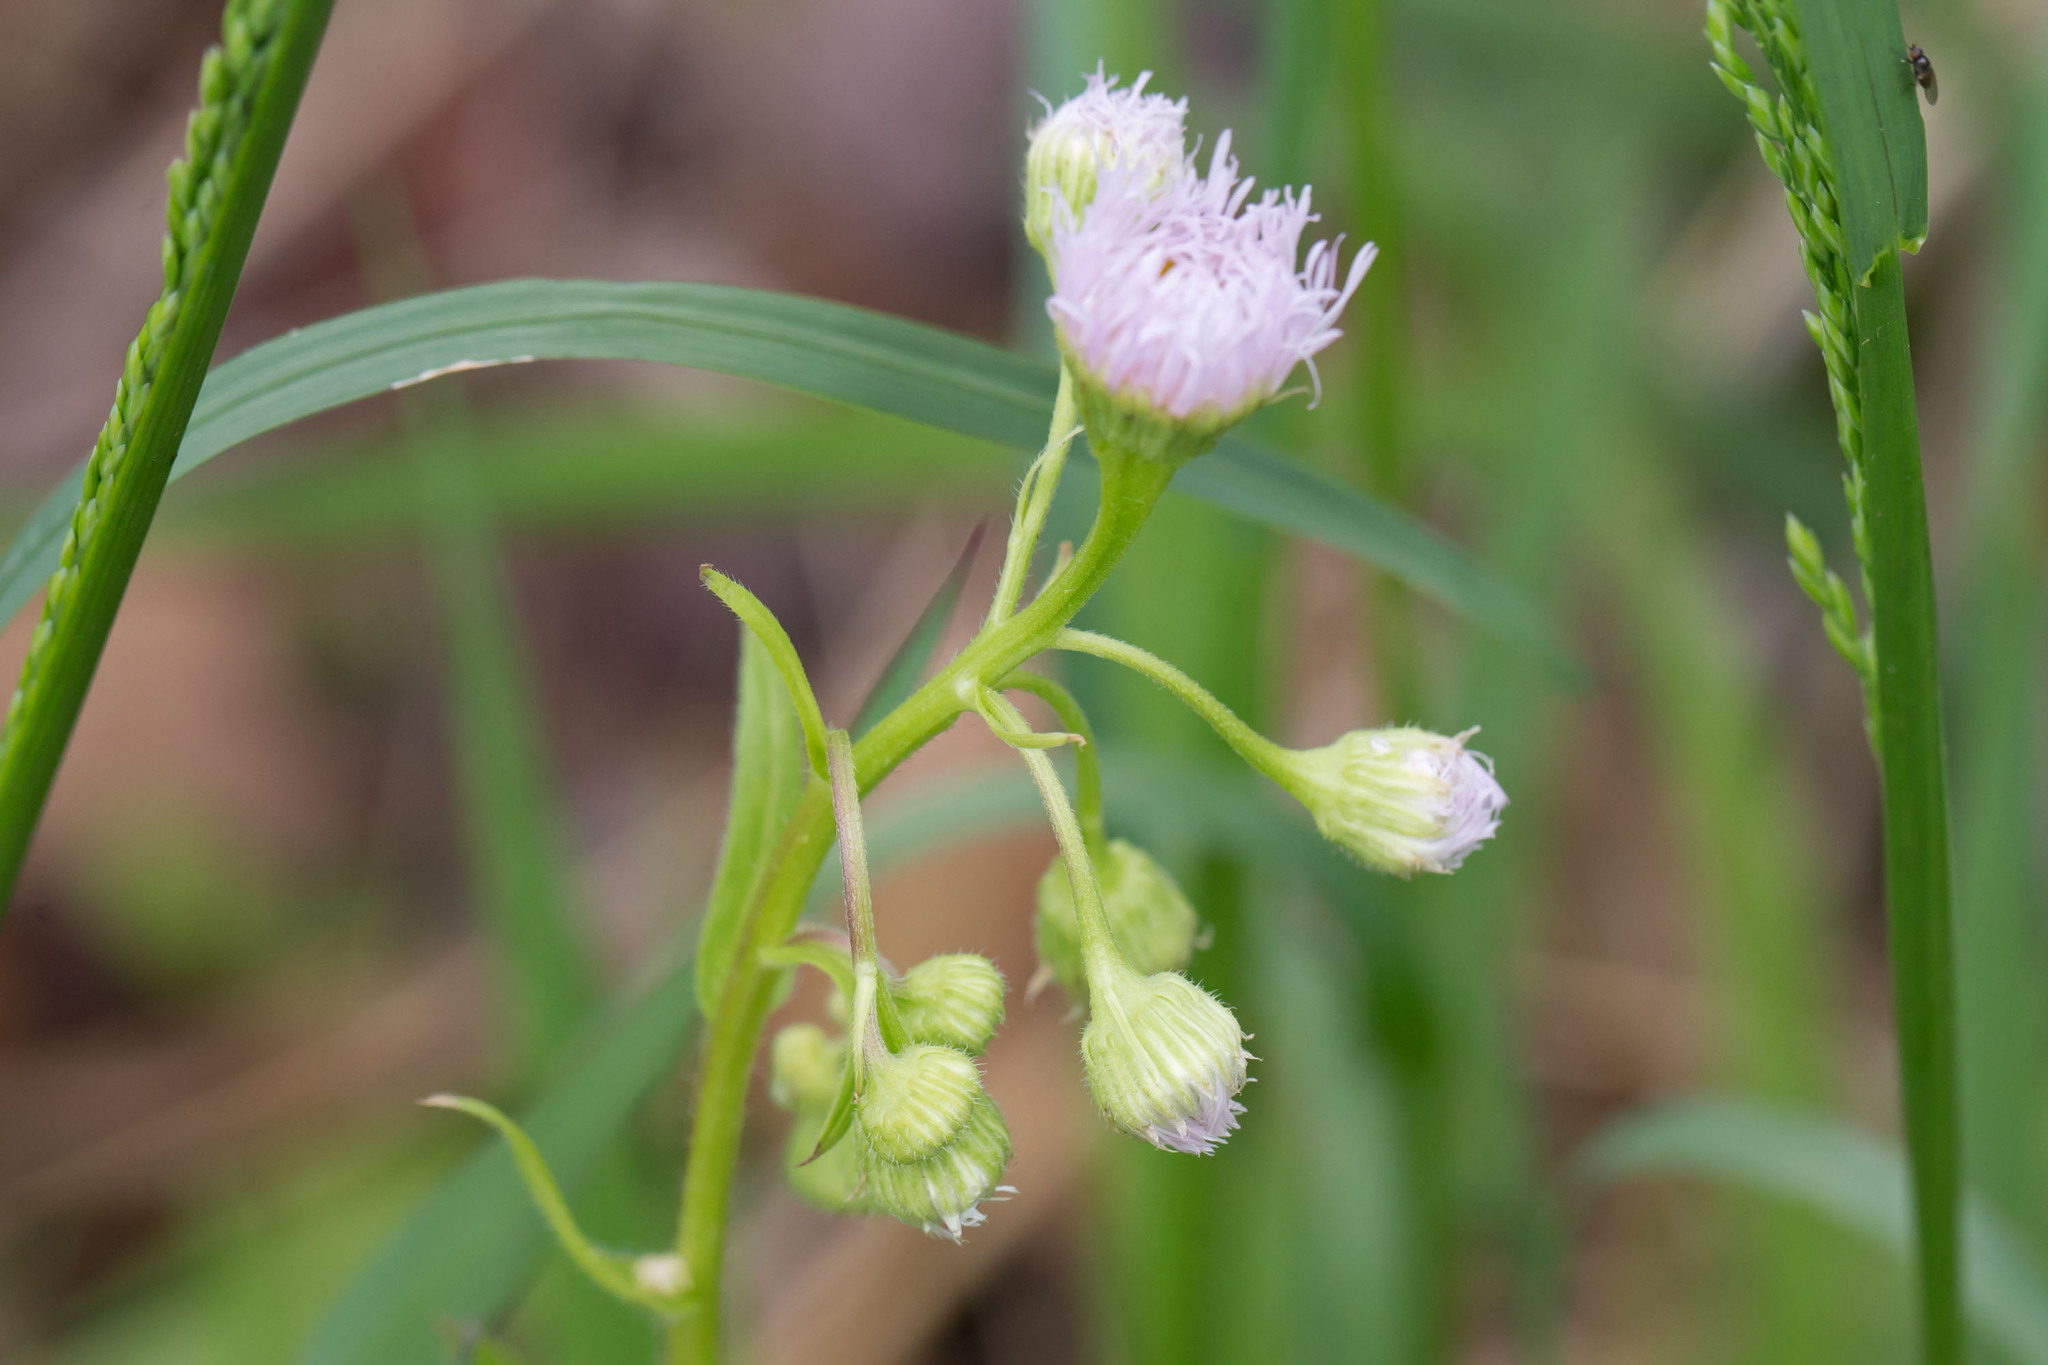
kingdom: Plantae
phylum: Tracheophyta
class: Magnoliopsida
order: Asterales
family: Asteraceae
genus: Erigeron
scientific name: Erigeron philadelphicus
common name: Robin's-plantain
